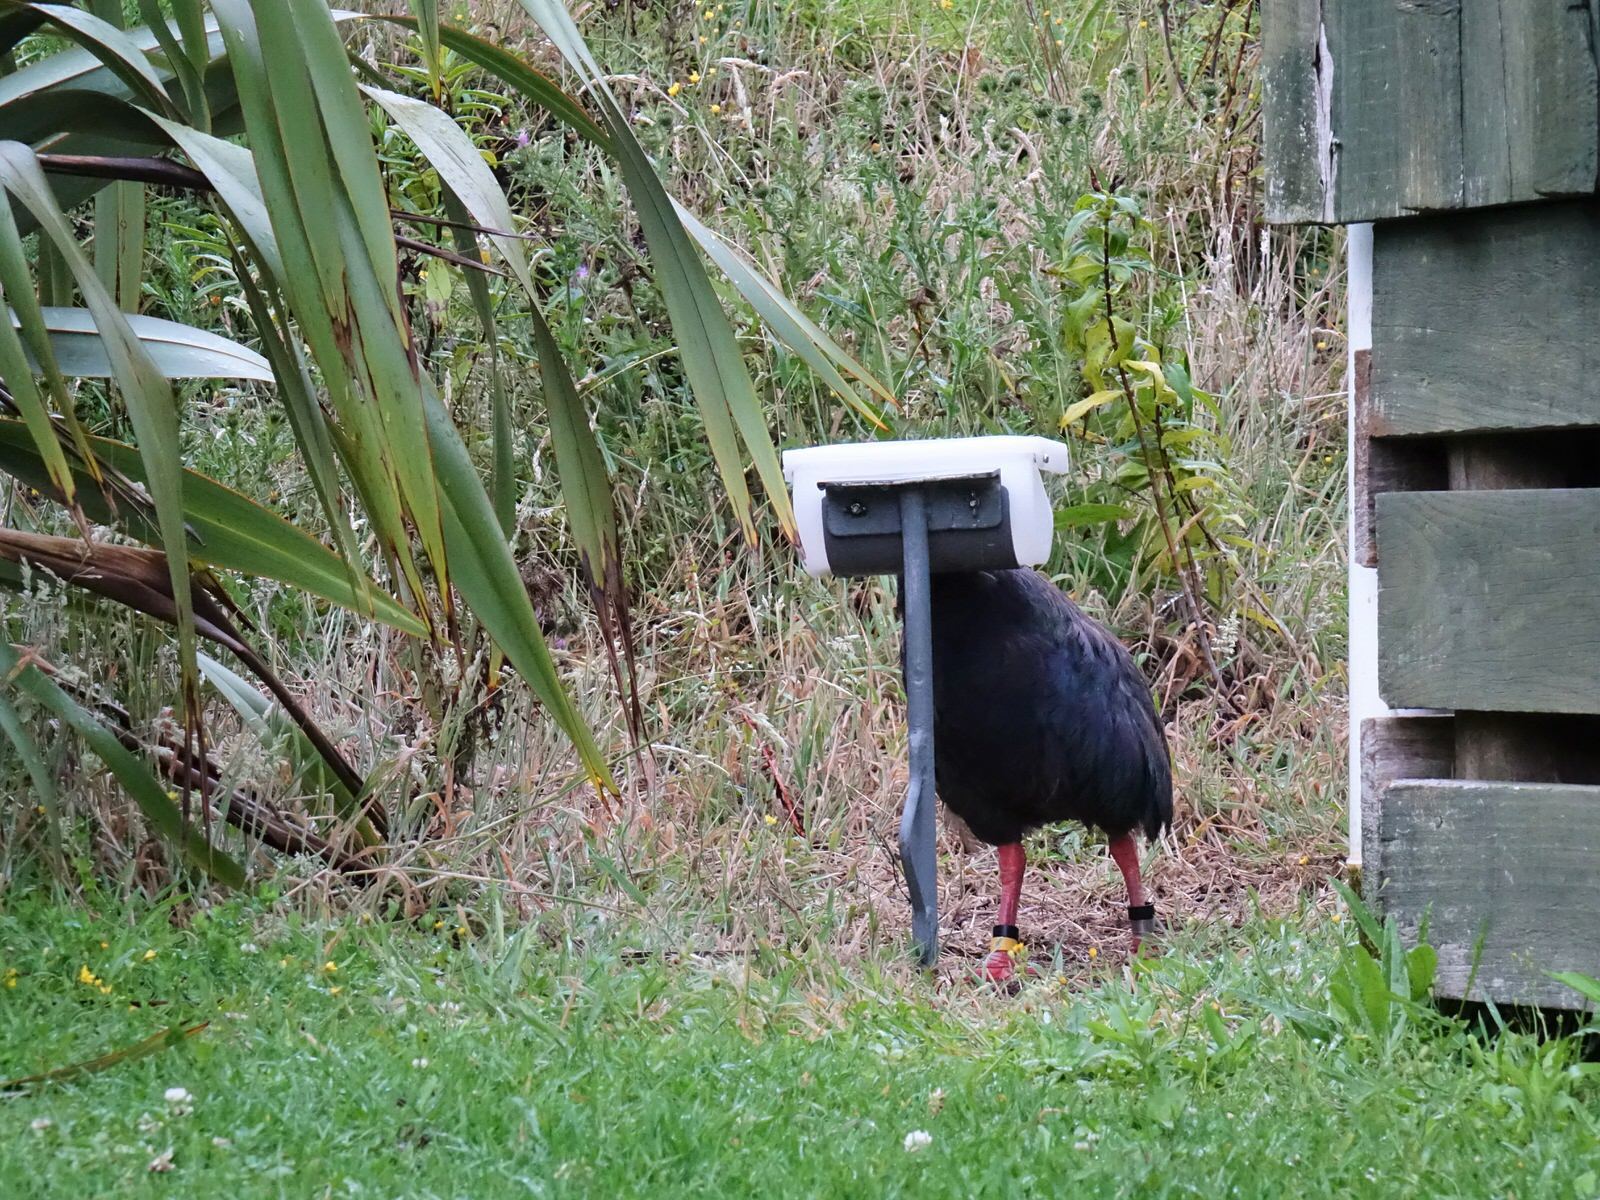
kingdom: Animalia
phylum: Chordata
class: Aves
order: Gruiformes
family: Rallidae
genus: Porphyrio
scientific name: Porphyrio hochstetteri
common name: South island takahe
